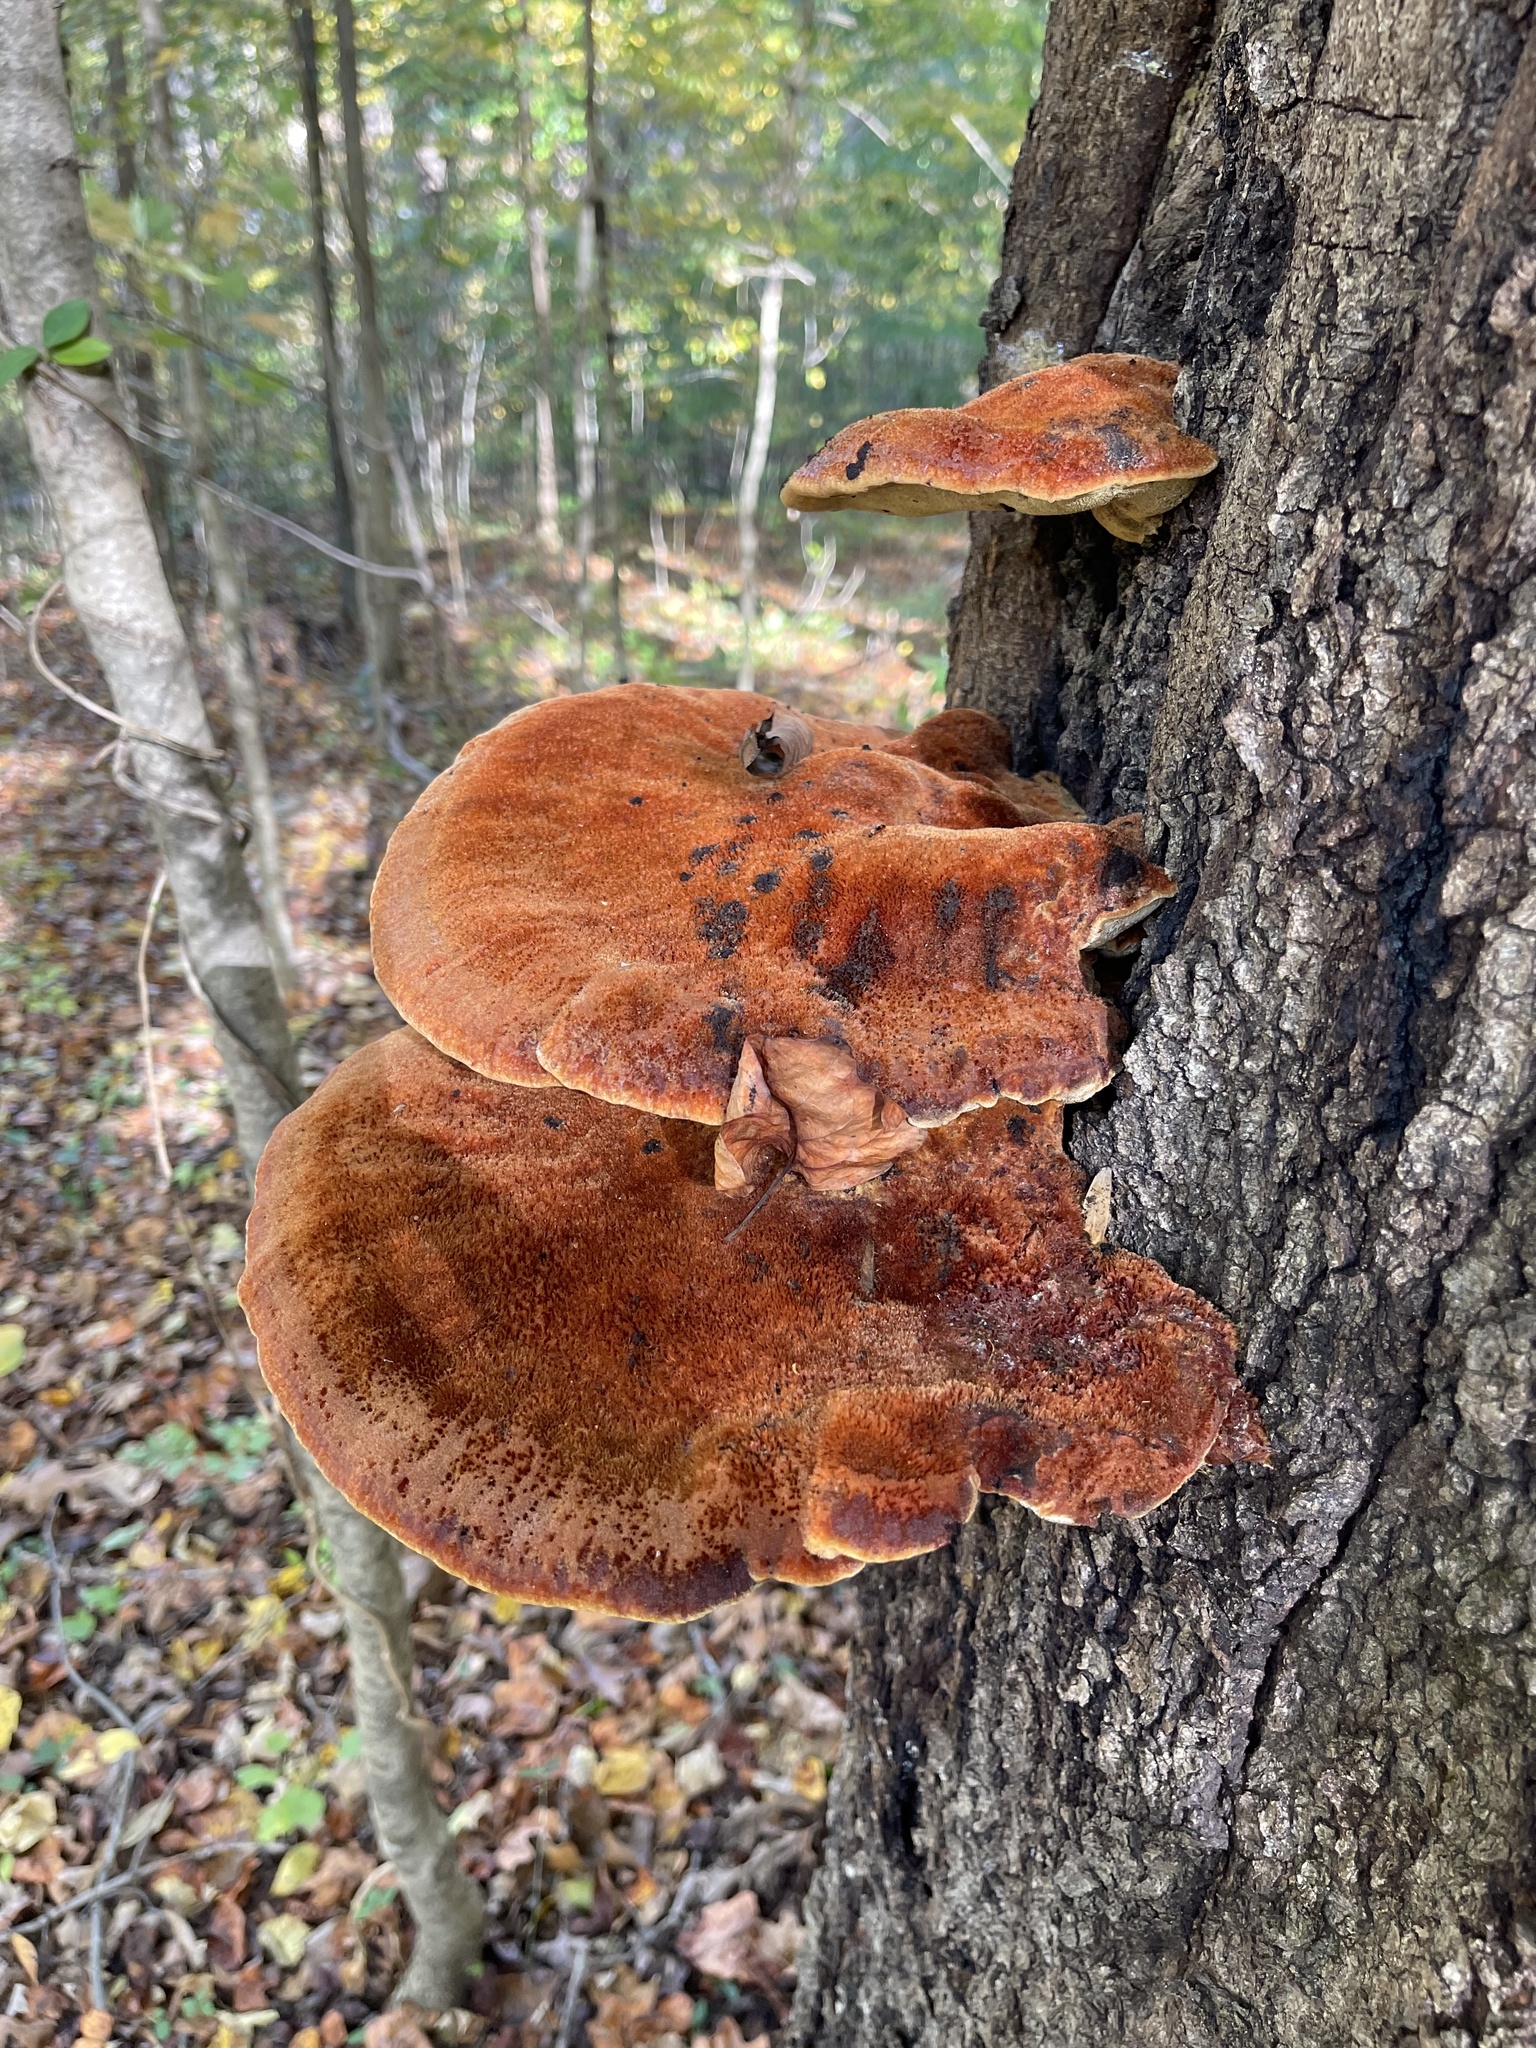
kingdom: Fungi
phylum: Basidiomycota
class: Agaricomycetes
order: Hymenochaetales
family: Hymenochaetaceae
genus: Inonotus
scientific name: Inonotus hispidus
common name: Shaggy bracket
